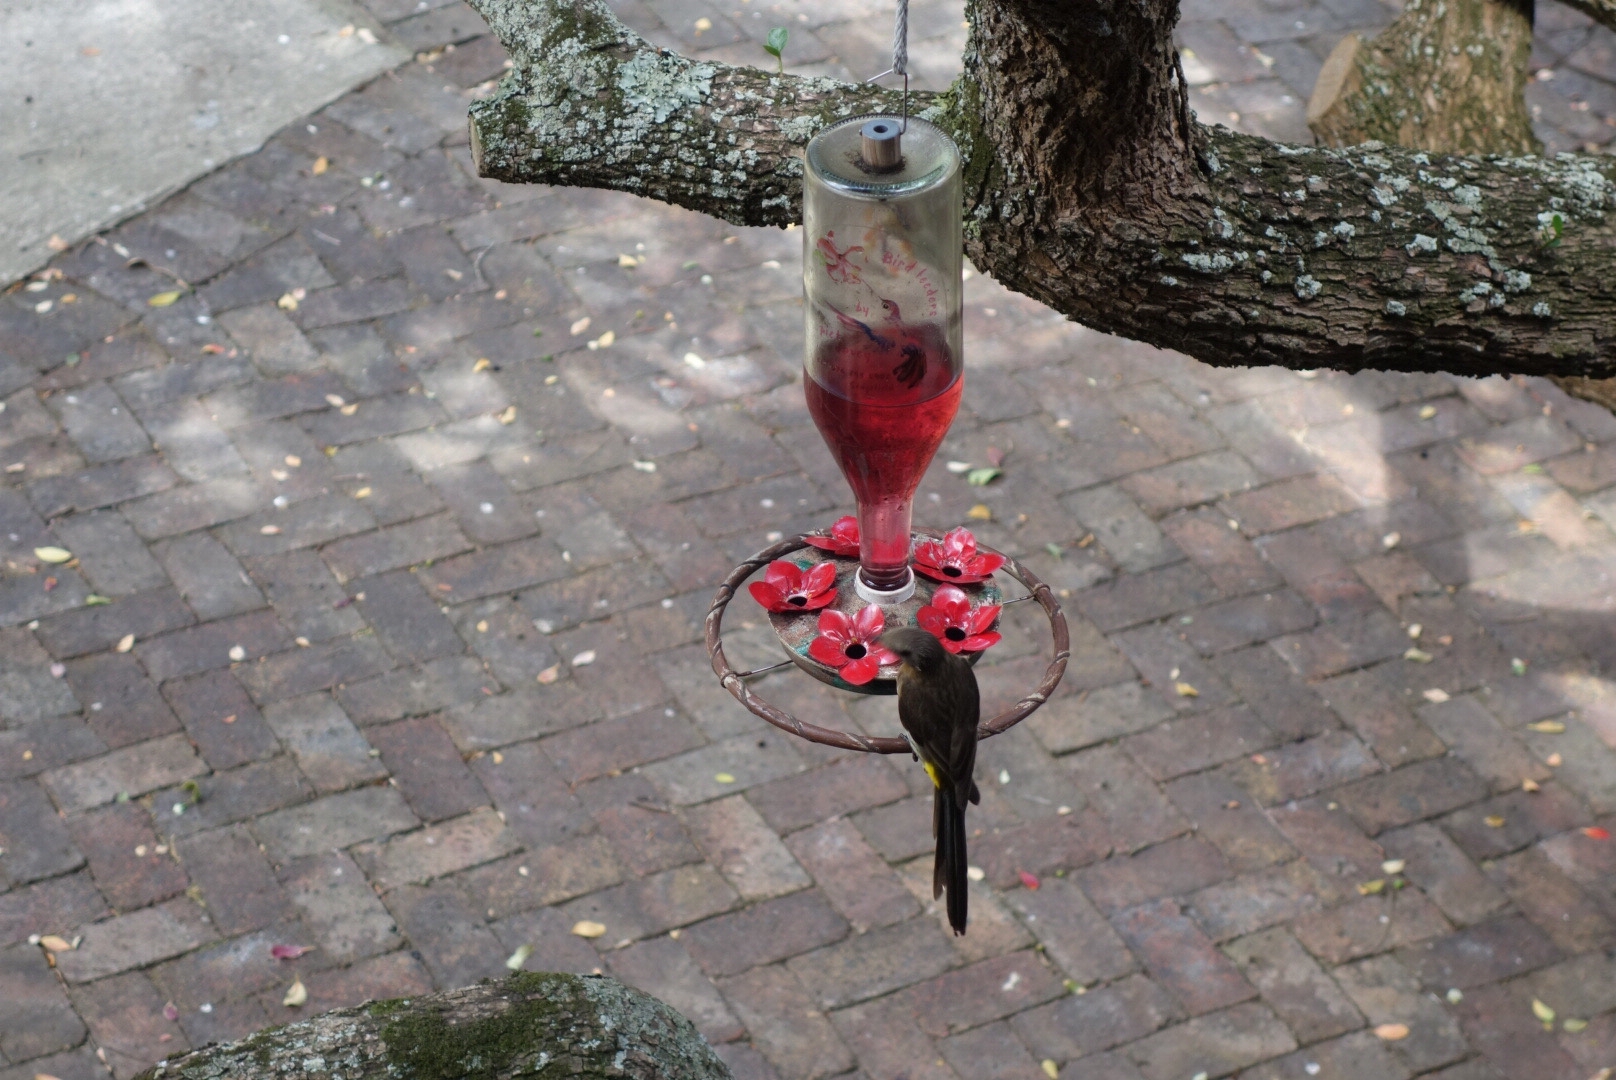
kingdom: Animalia
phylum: Chordata
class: Aves
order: Passeriformes
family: Promeropidae
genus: Promerops
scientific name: Promerops cafer
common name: Cape sugarbird
